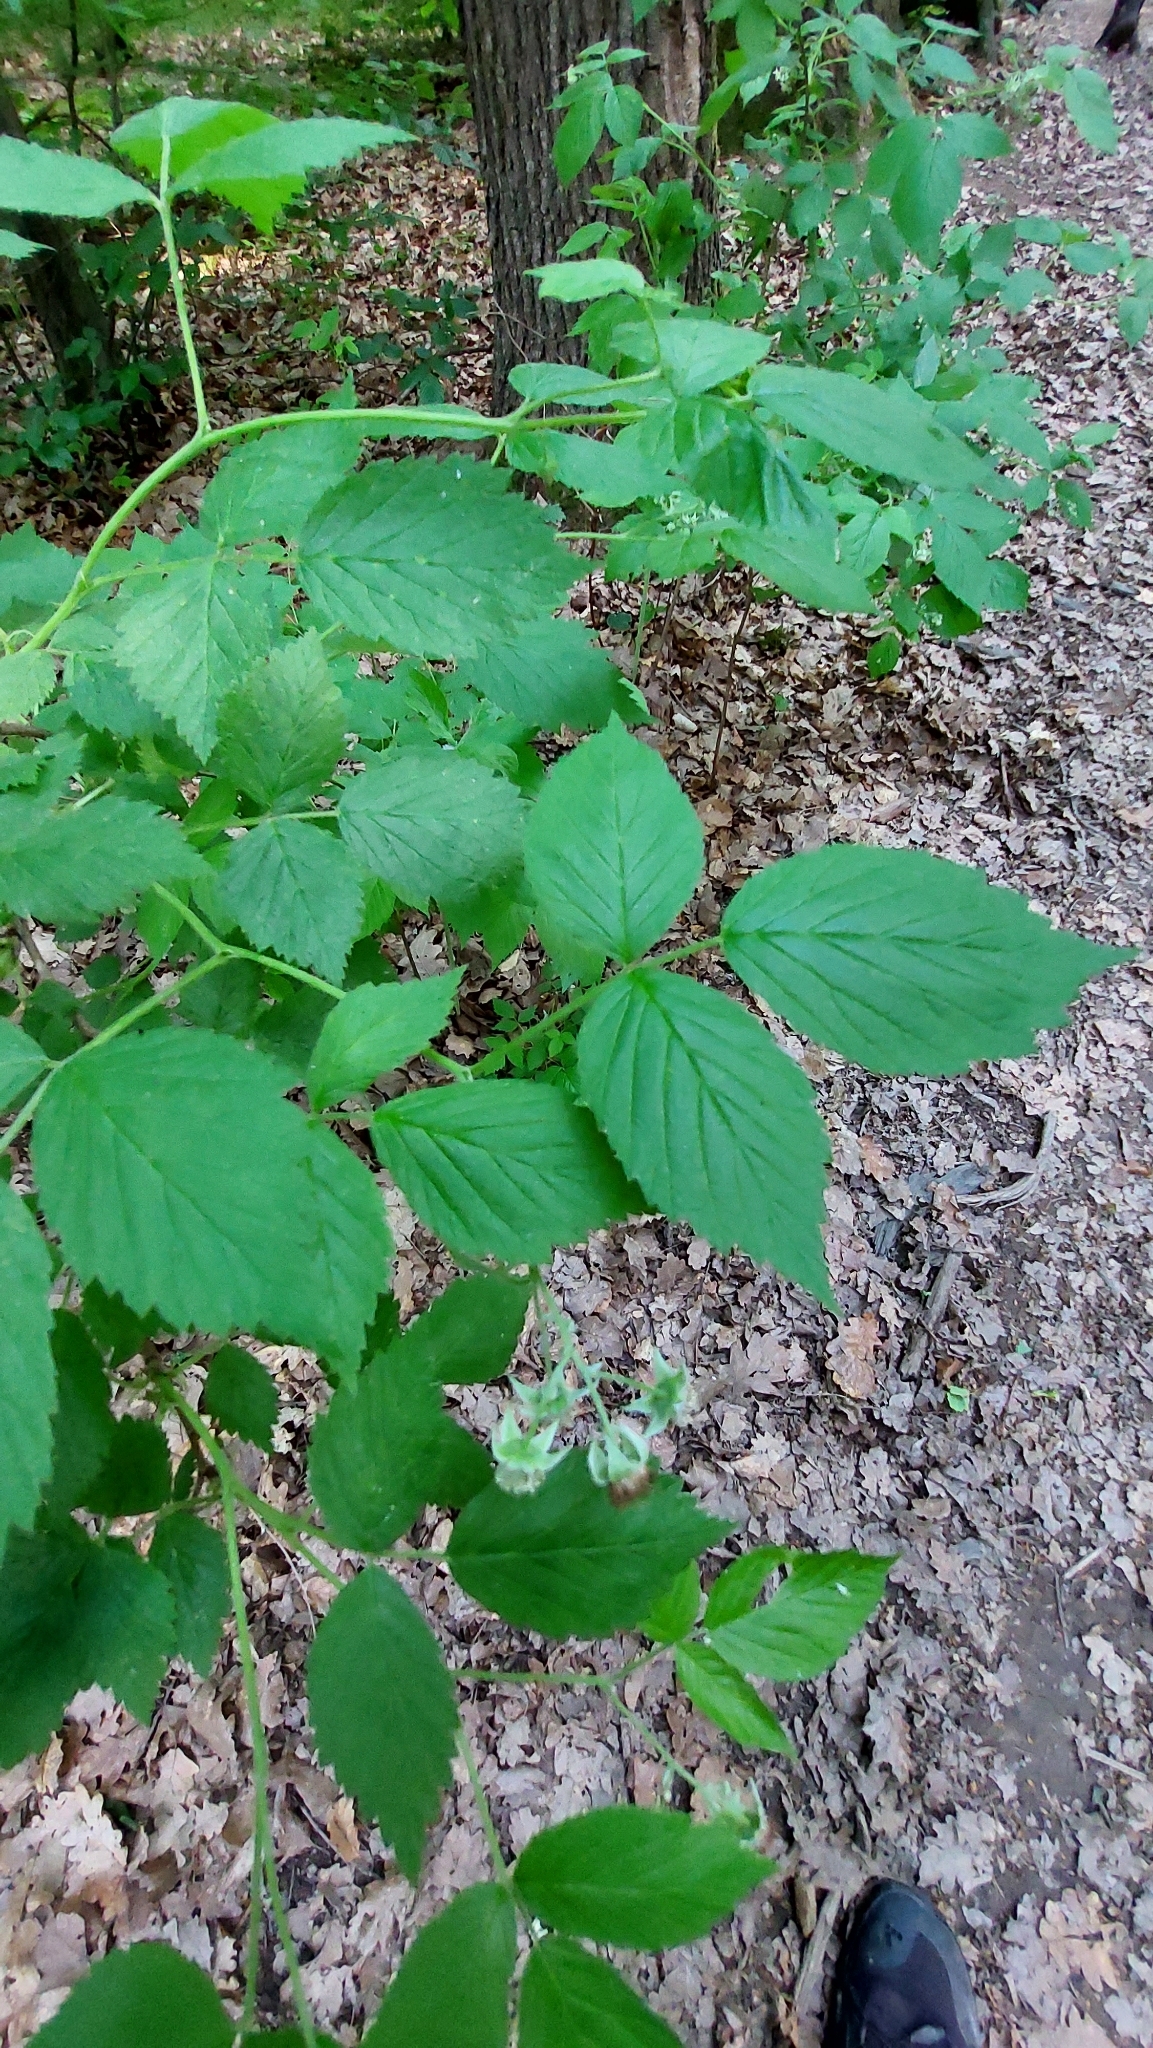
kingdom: Plantae
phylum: Tracheophyta
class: Magnoliopsida
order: Rosales
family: Rosaceae
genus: Rubus
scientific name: Rubus idaeus
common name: Raspberry
